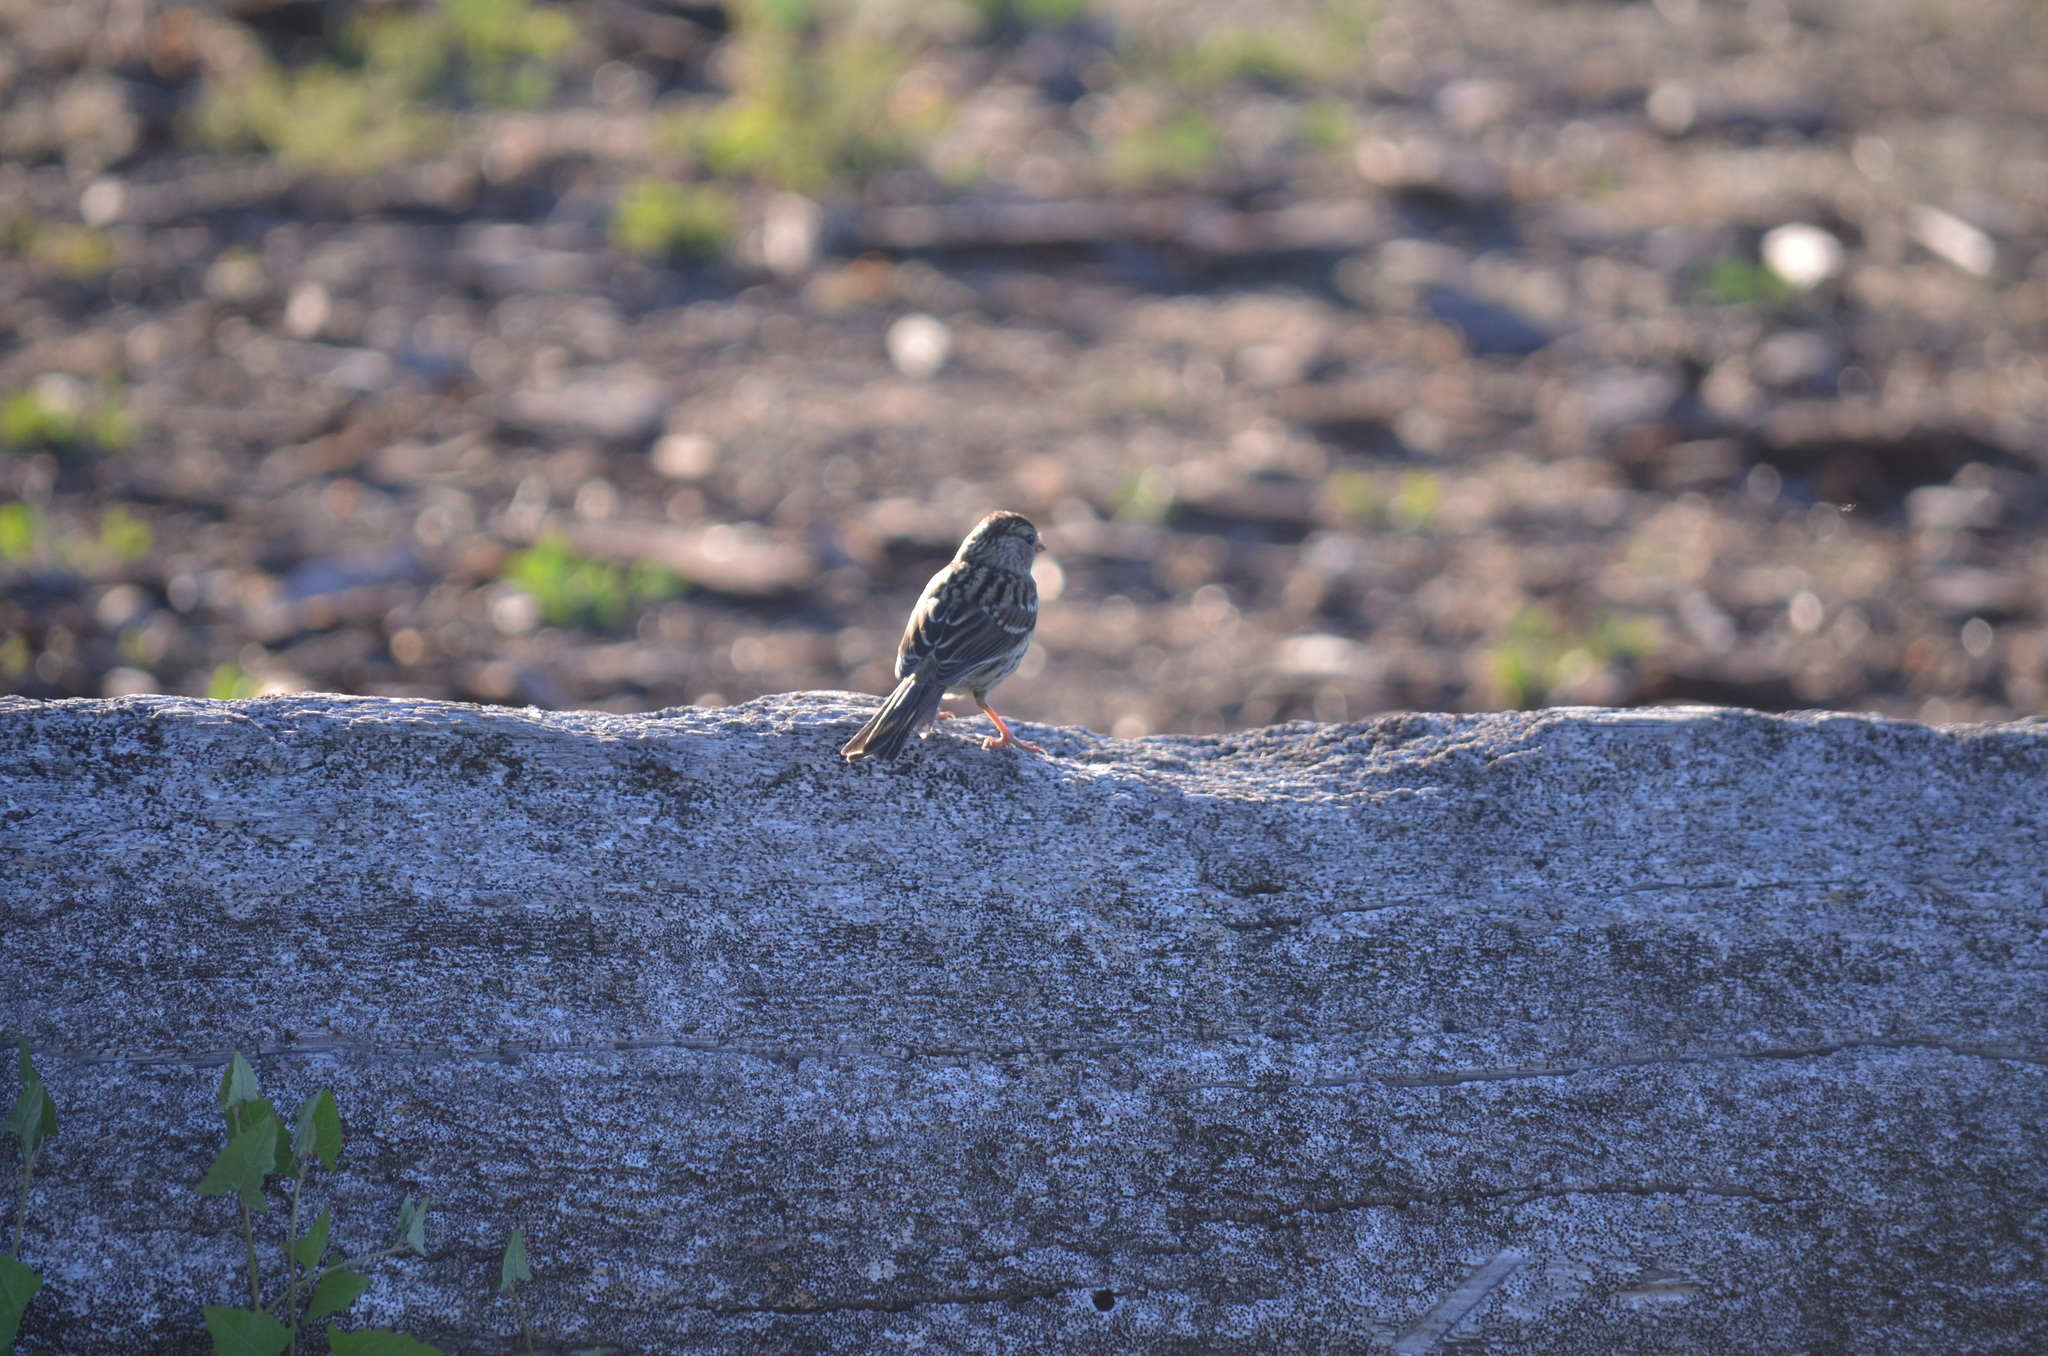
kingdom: Animalia
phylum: Chordata
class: Aves
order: Passeriformes
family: Passerellidae
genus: Zonotrichia
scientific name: Zonotrichia leucophrys
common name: White-crowned sparrow
